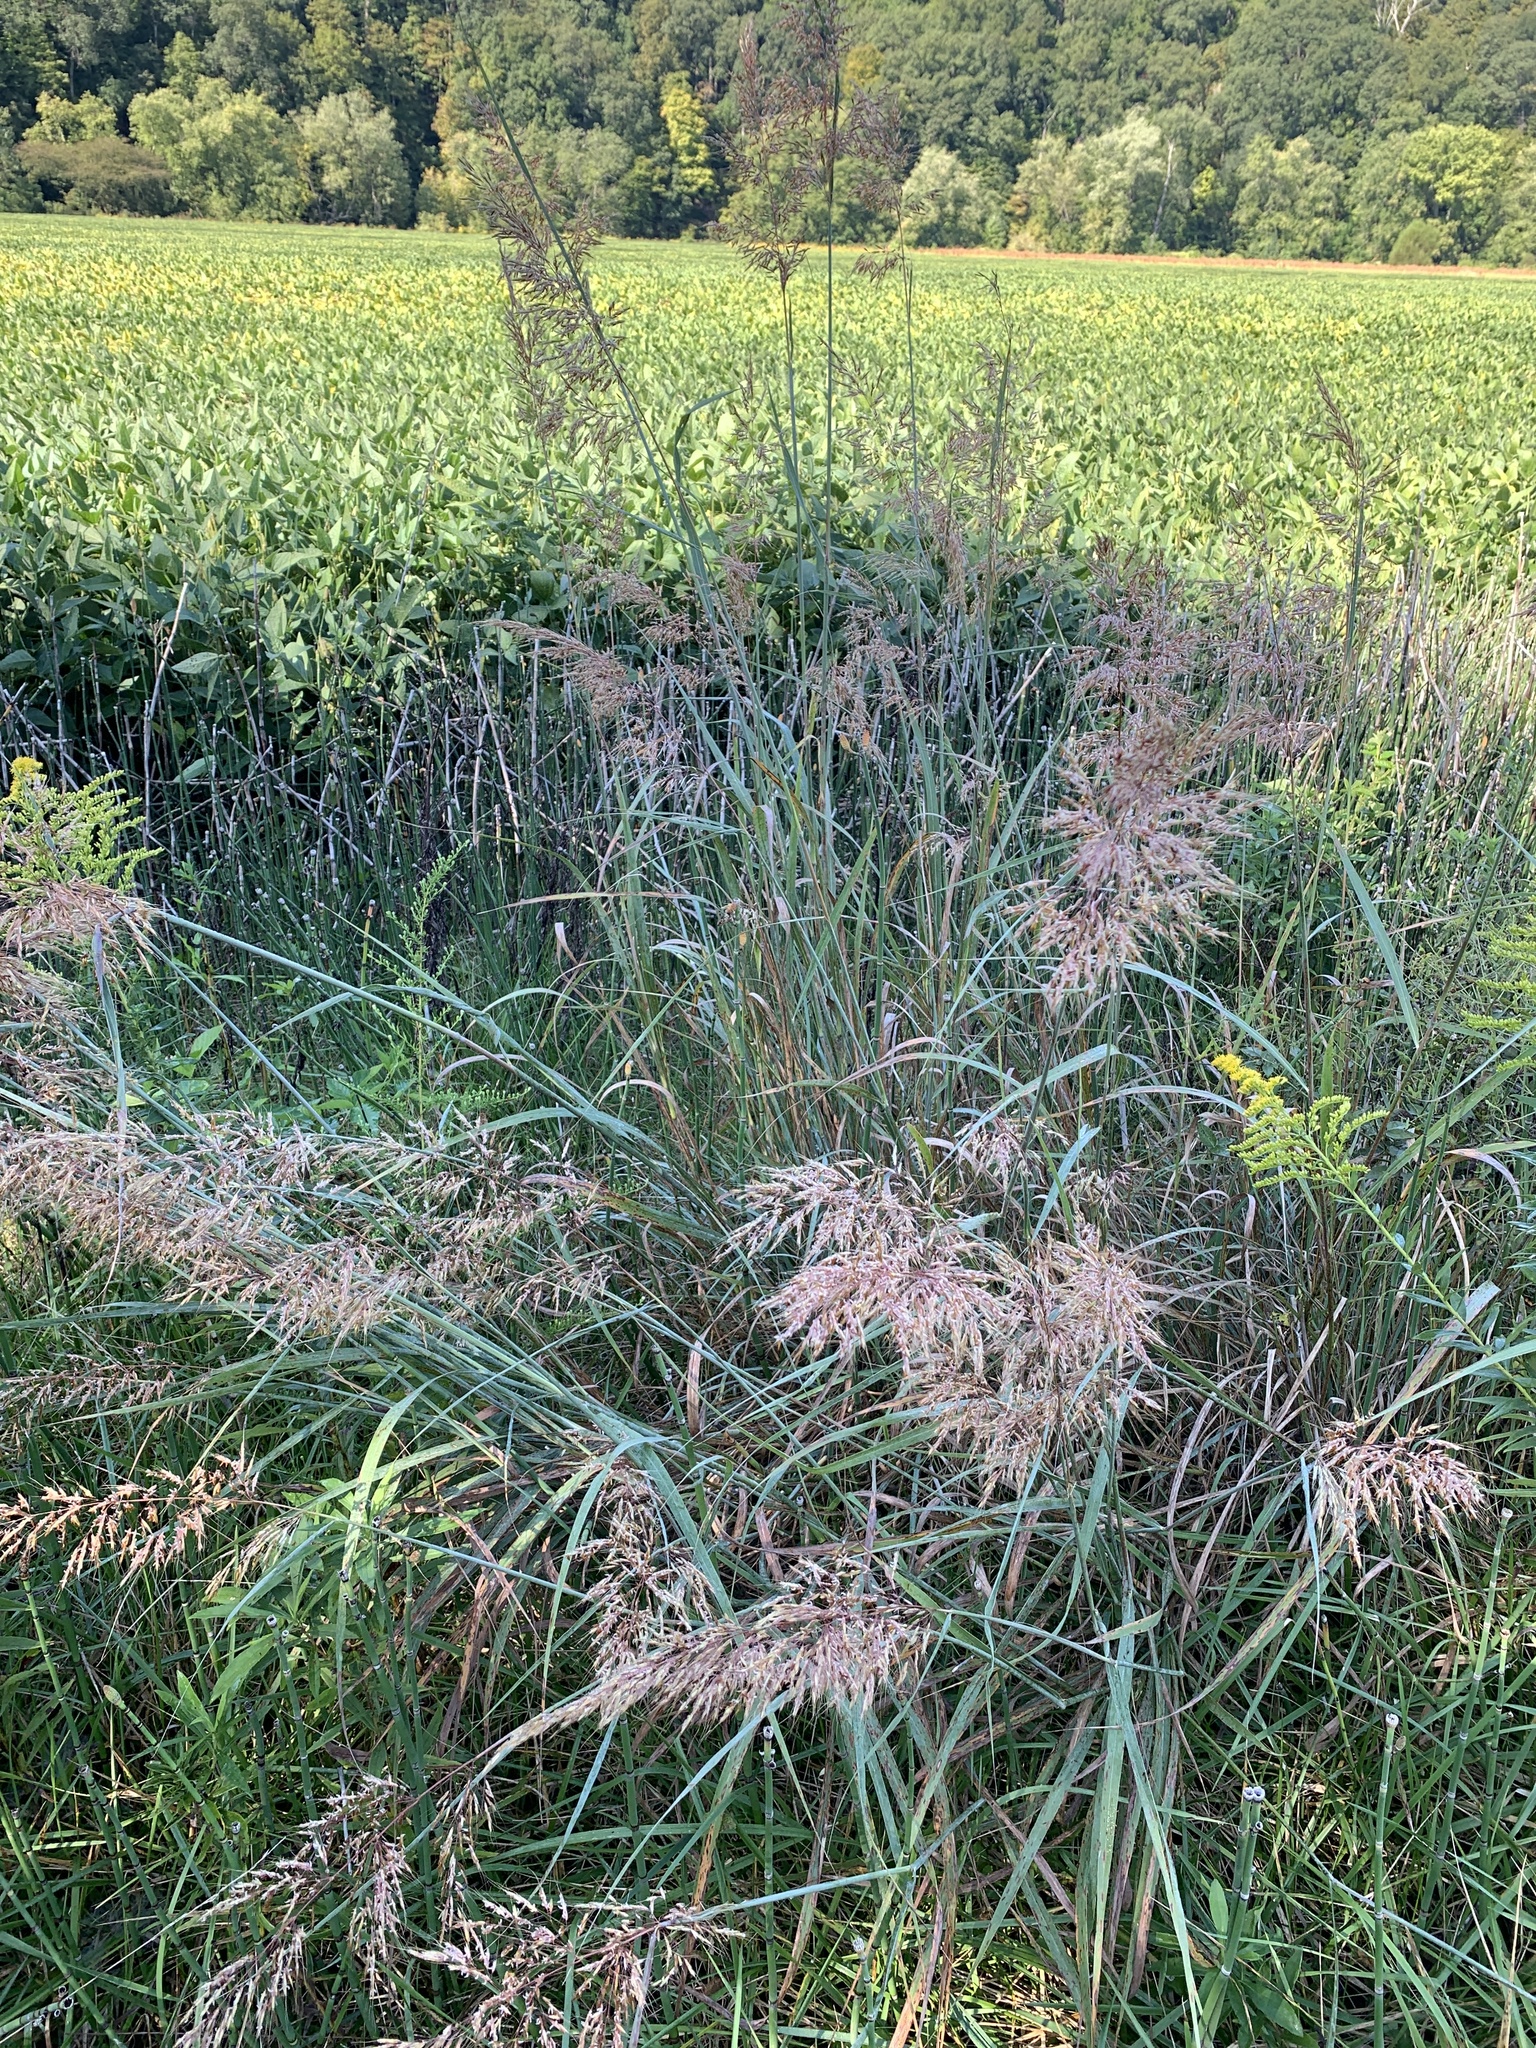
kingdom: Plantae
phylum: Tracheophyta
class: Liliopsida
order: Poales
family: Poaceae
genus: Sorghastrum
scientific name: Sorghastrum nutans
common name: Indian grass
